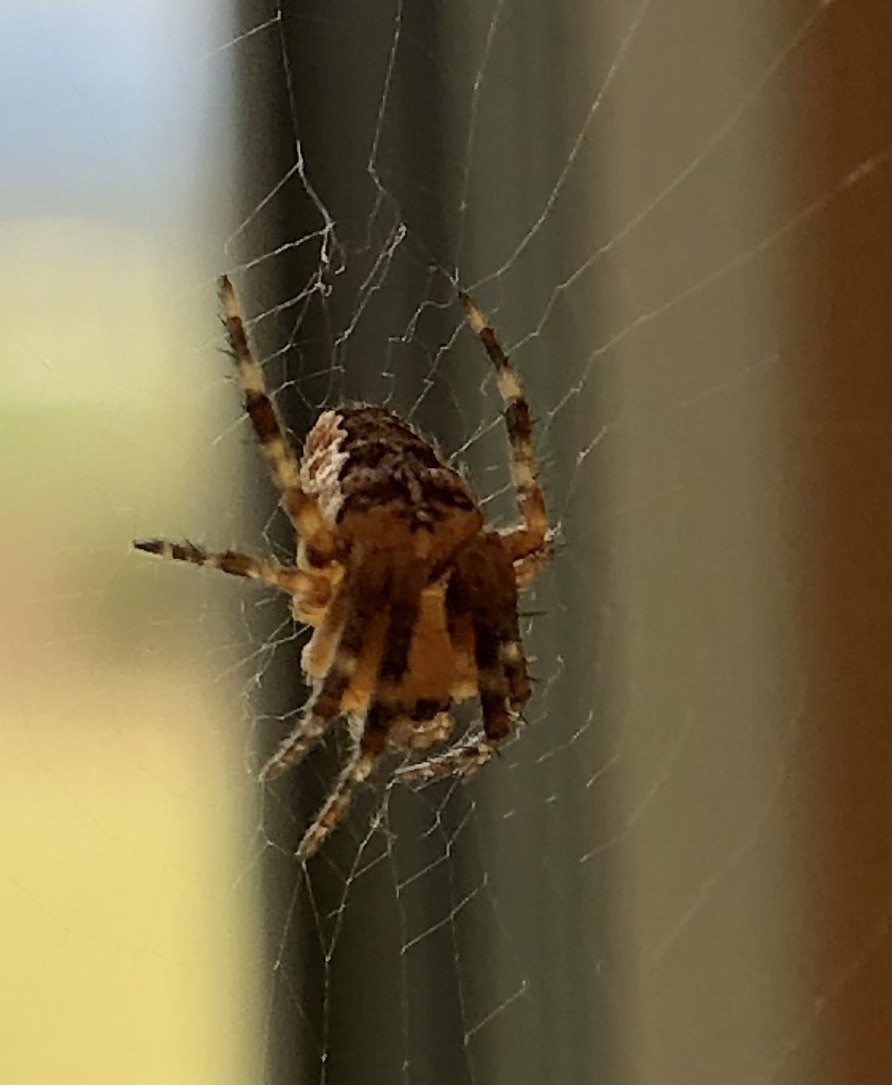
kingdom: Animalia
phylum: Arthropoda
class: Arachnida
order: Araneae
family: Araneidae
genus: Araneus
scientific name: Araneus diadematus
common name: Cross orbweaver
